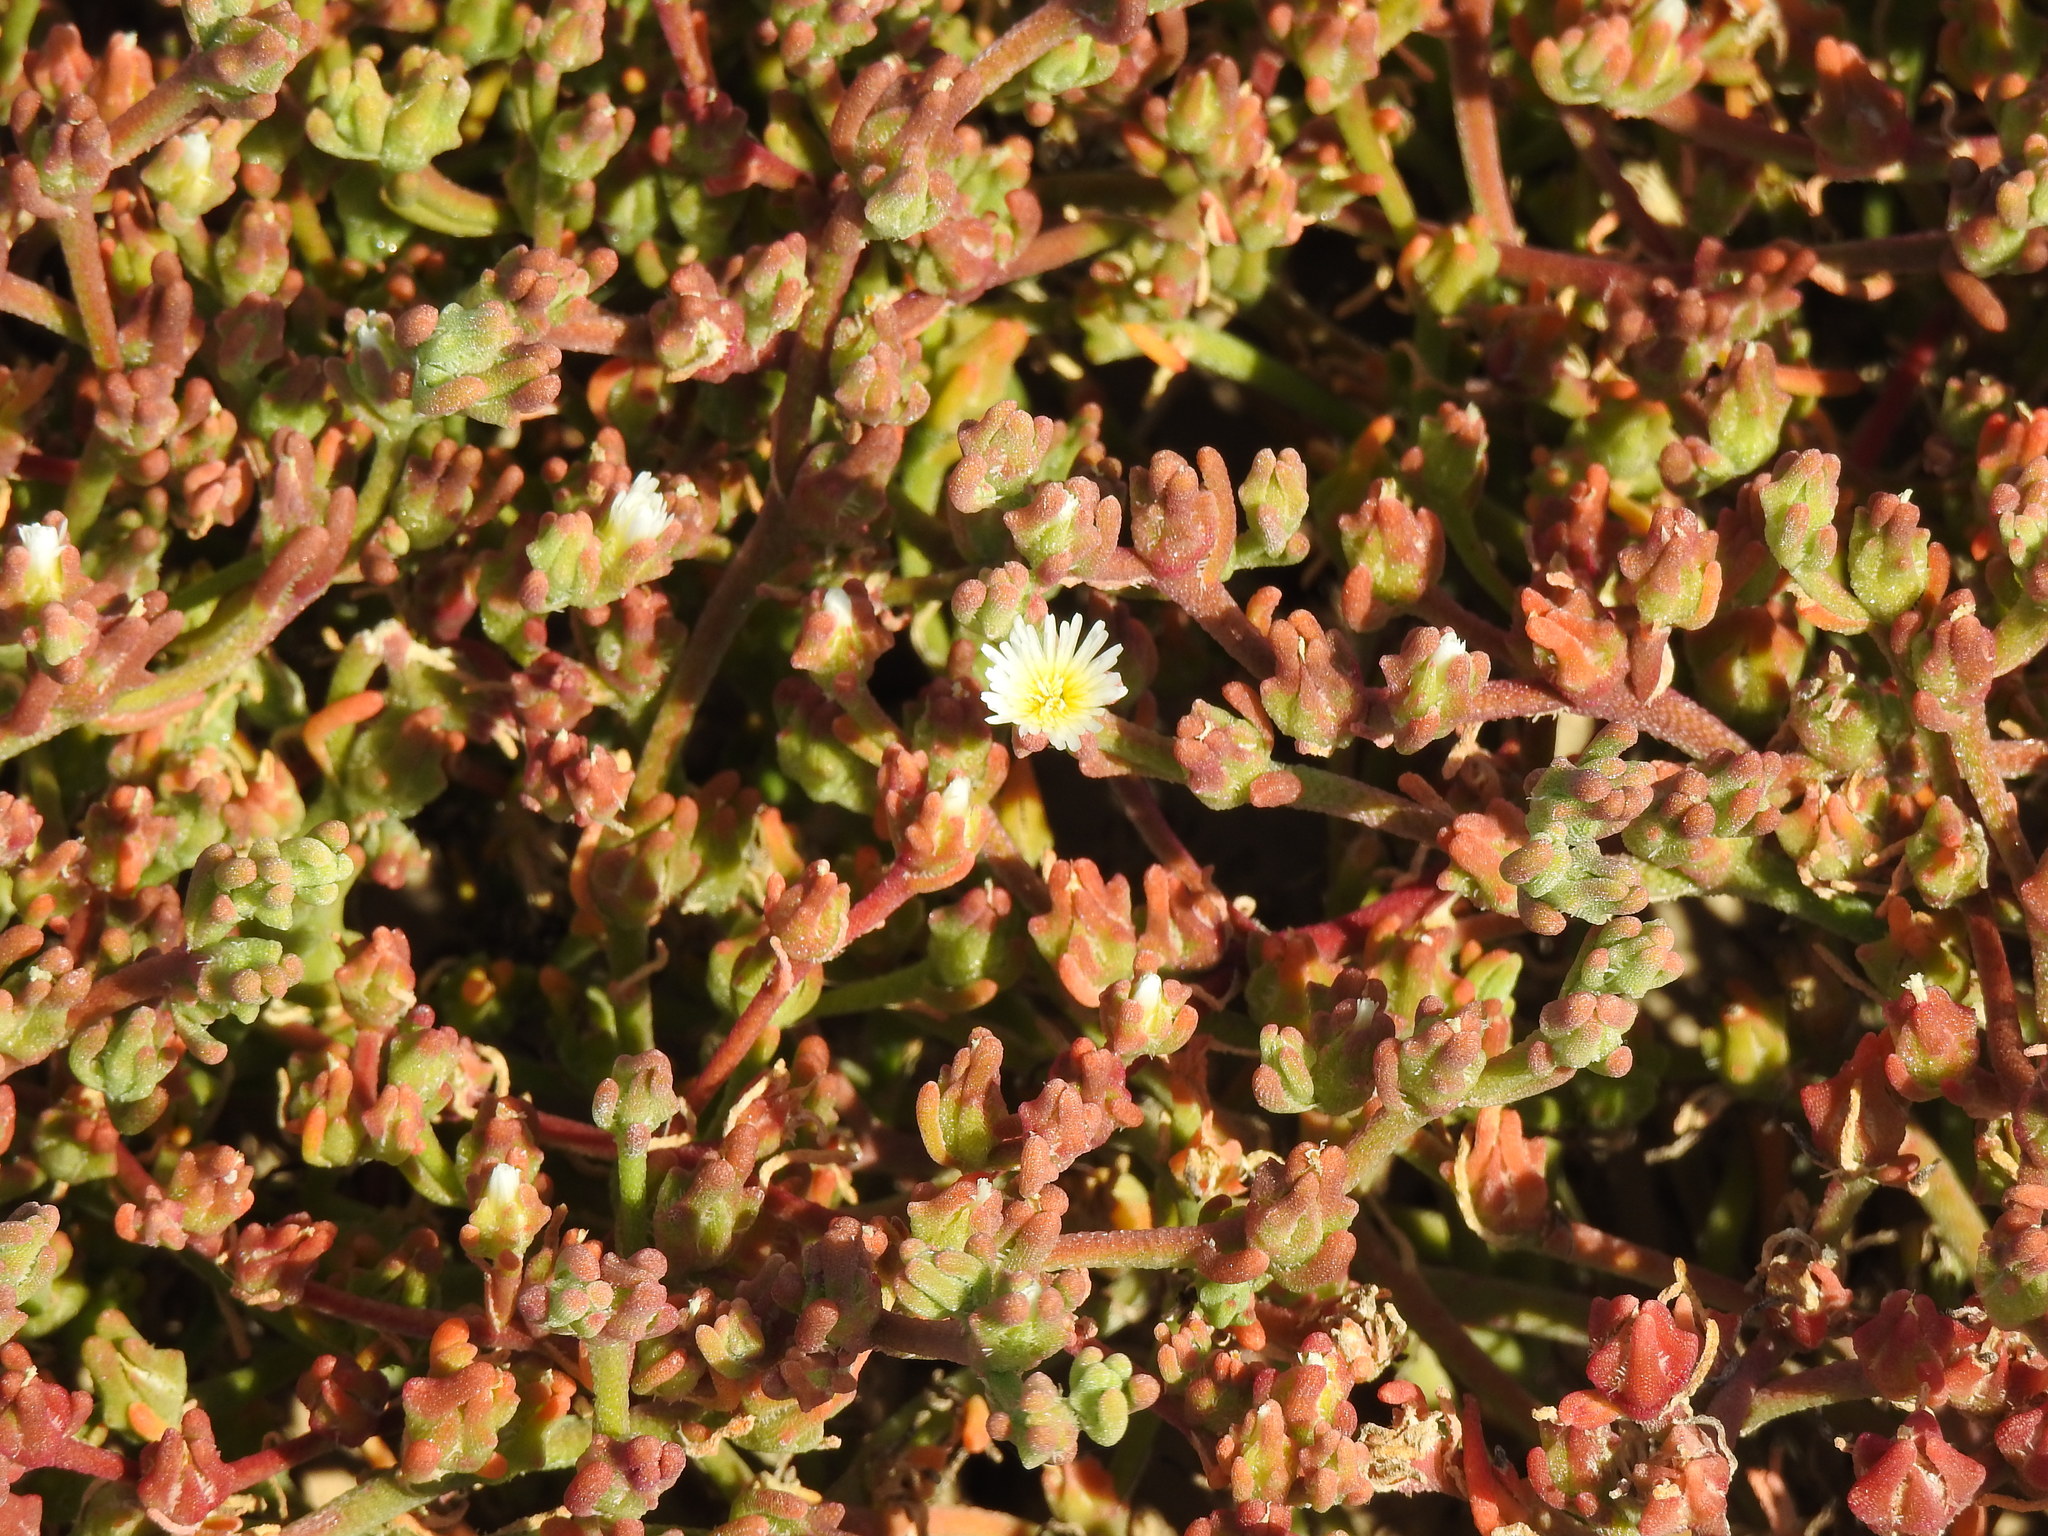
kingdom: Plantae
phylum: Tracheophyta
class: Magnoliopsida
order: Caryophyllales
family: Aizoaceae
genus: Mesembryanthemum
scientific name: Mesembryanthemum nodiflorum
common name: Slenderleaf iceplant
